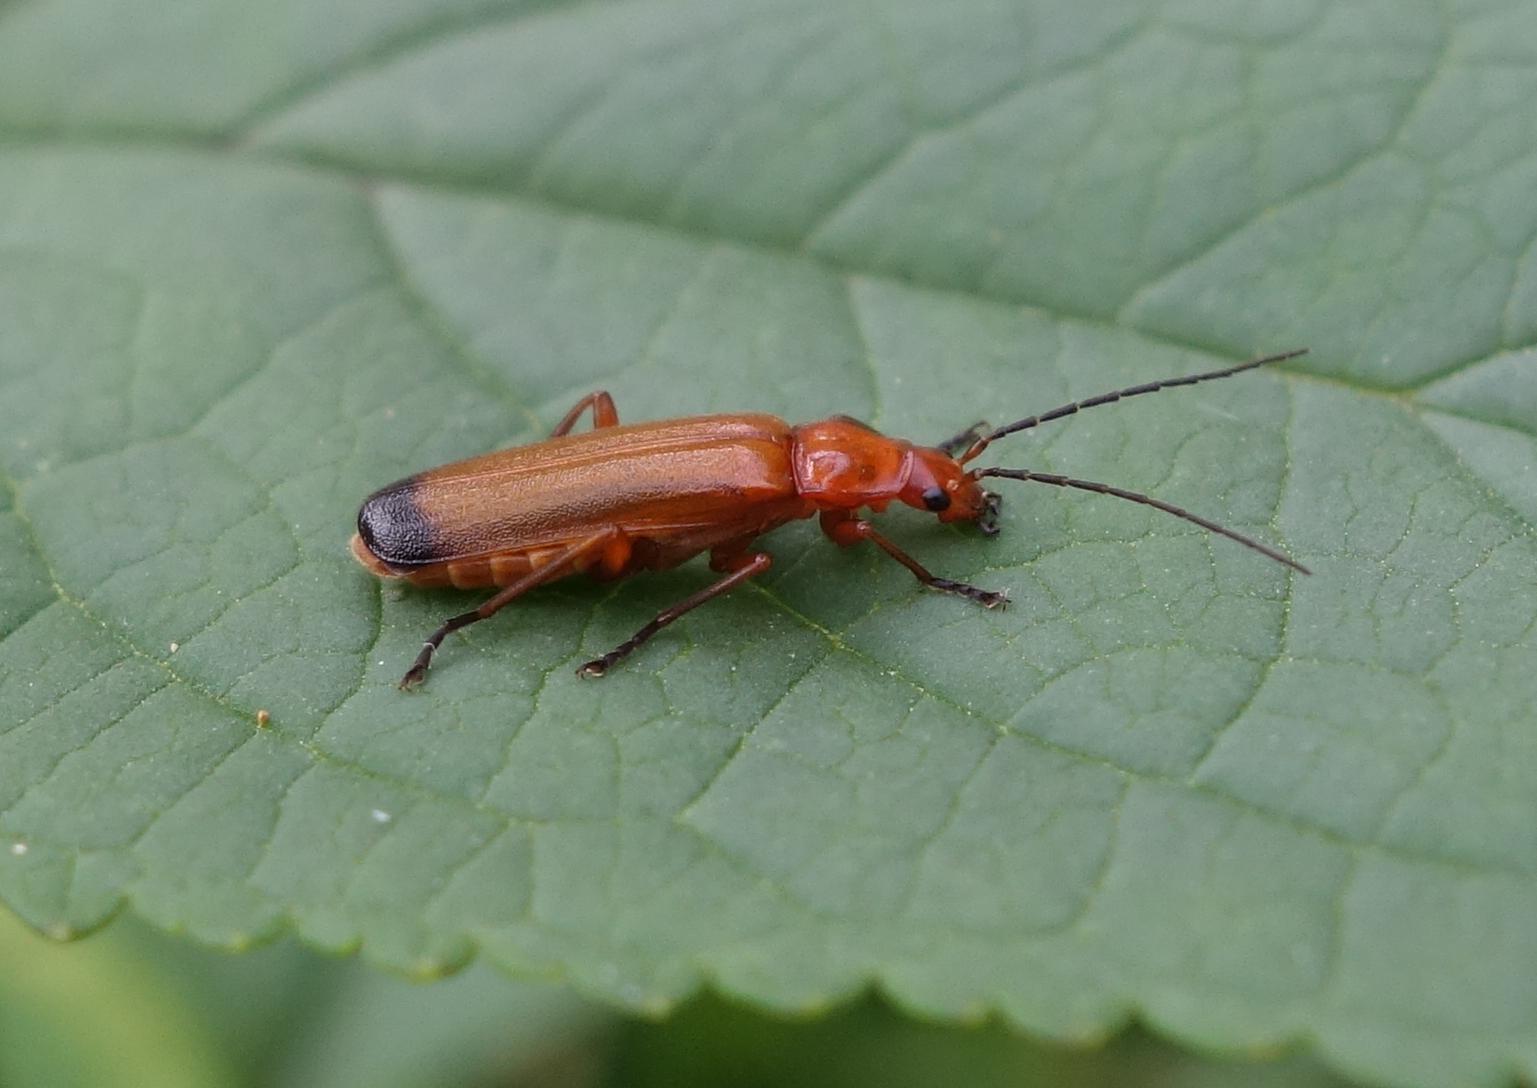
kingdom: Animalia
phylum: Arthropoda
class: Insecta
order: Coleoptera
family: Cantharidae
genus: Rhagonycha
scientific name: Rhagonycha fulva
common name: Common red soldier beetle
